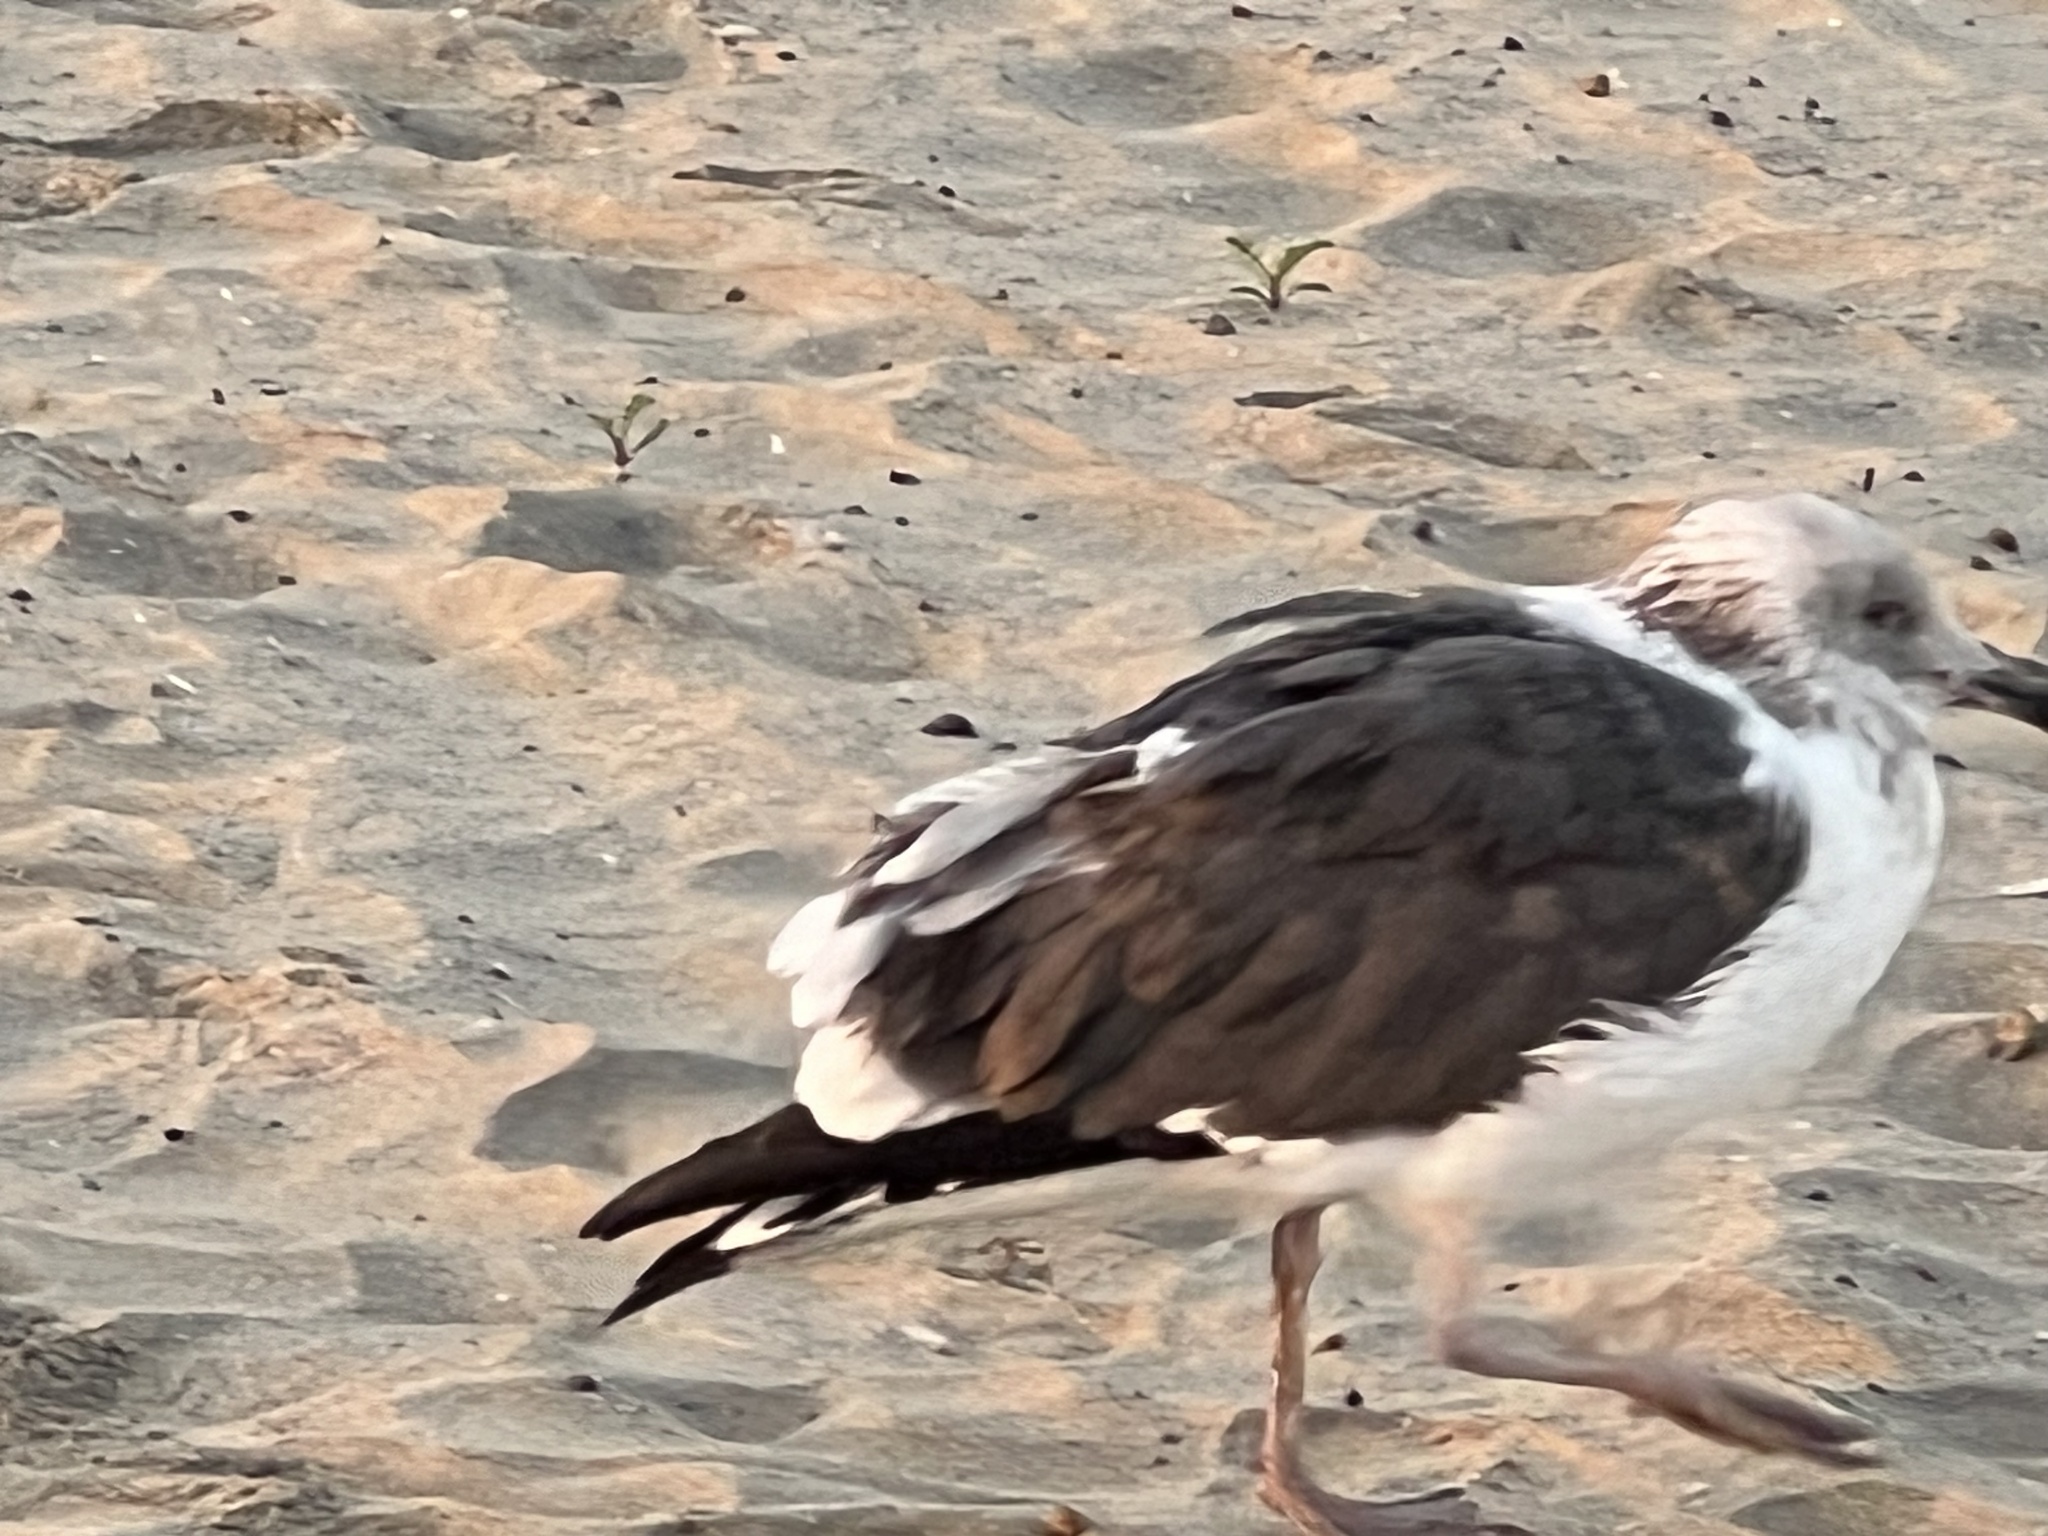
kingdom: Animalia
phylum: Chordata
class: Aves
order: Charadriiformes
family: Laridae
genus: Larus
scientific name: Larus occidentalis
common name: Western gull
